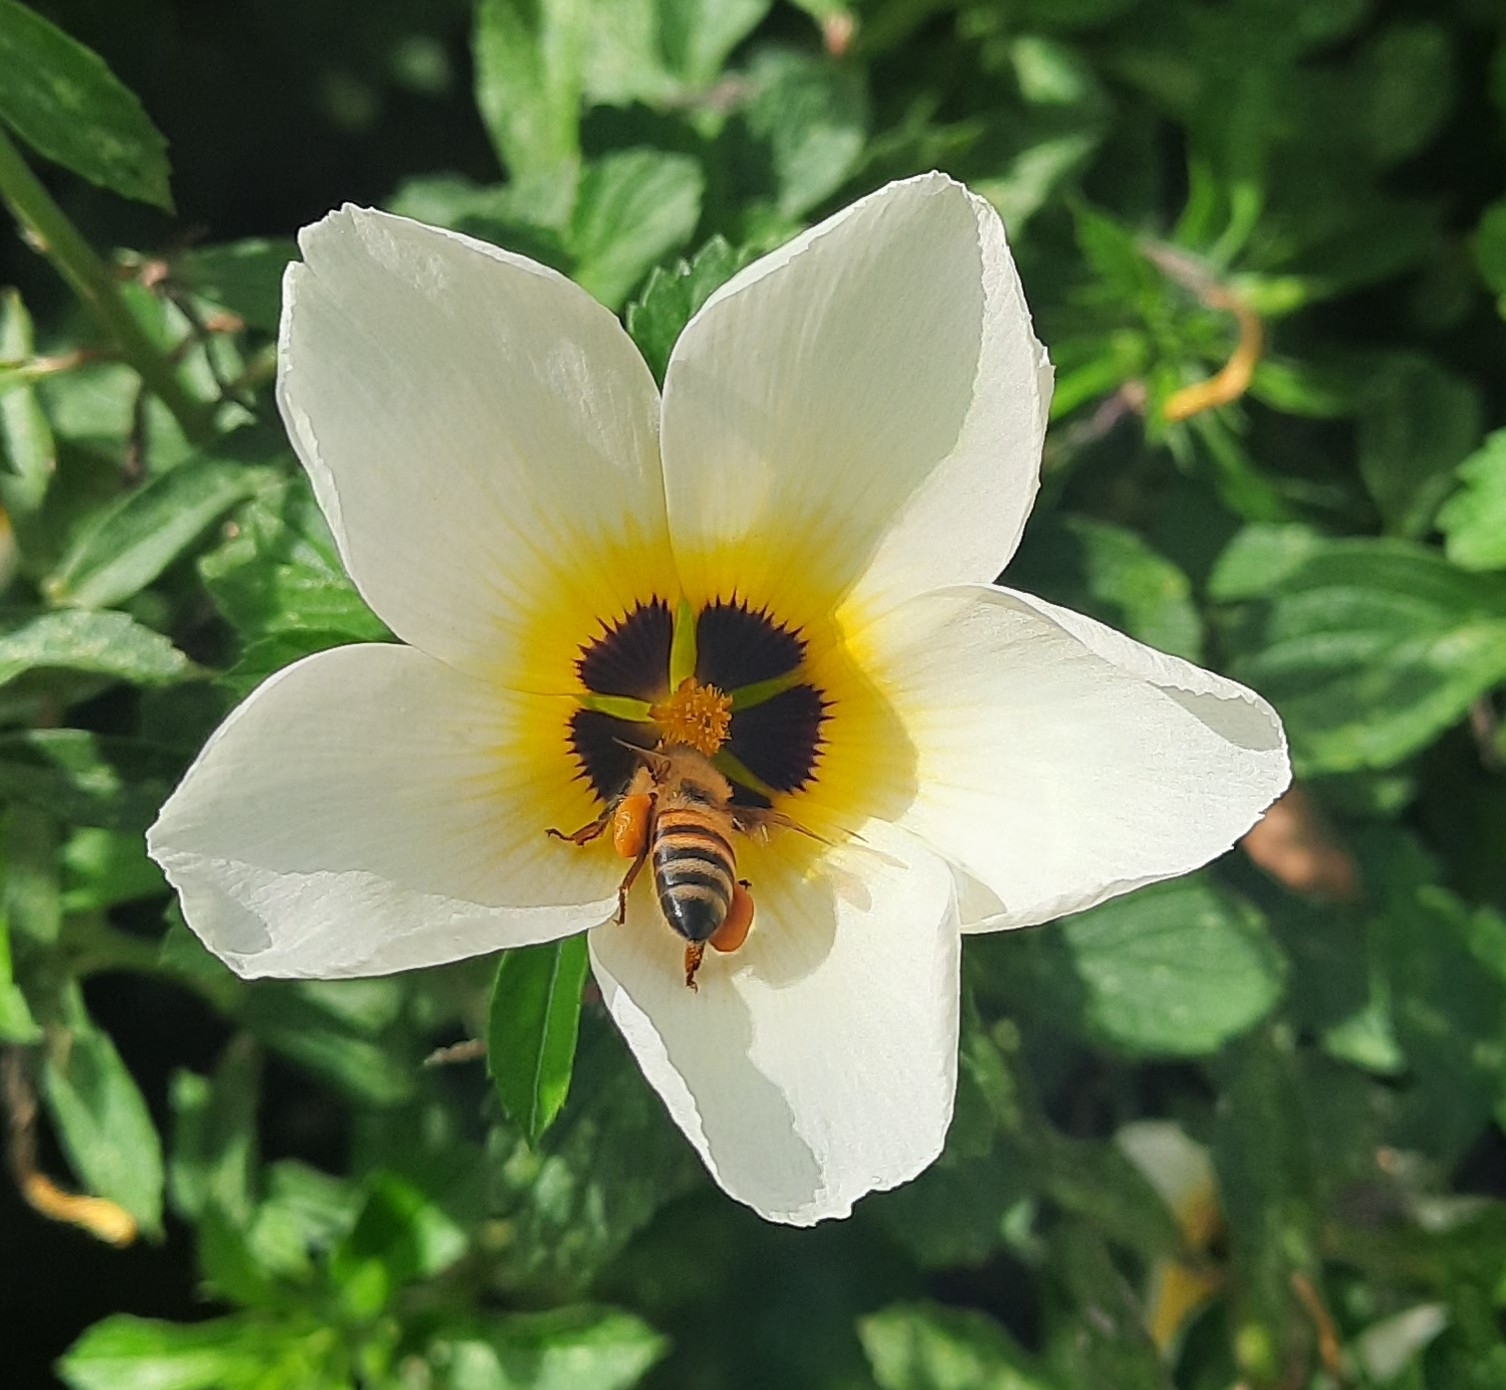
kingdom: Animalia
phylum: Arthropoda
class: Insecta
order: Hymenoptera
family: Apidae
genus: Apis
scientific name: Apis mellifera
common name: Honey bee
